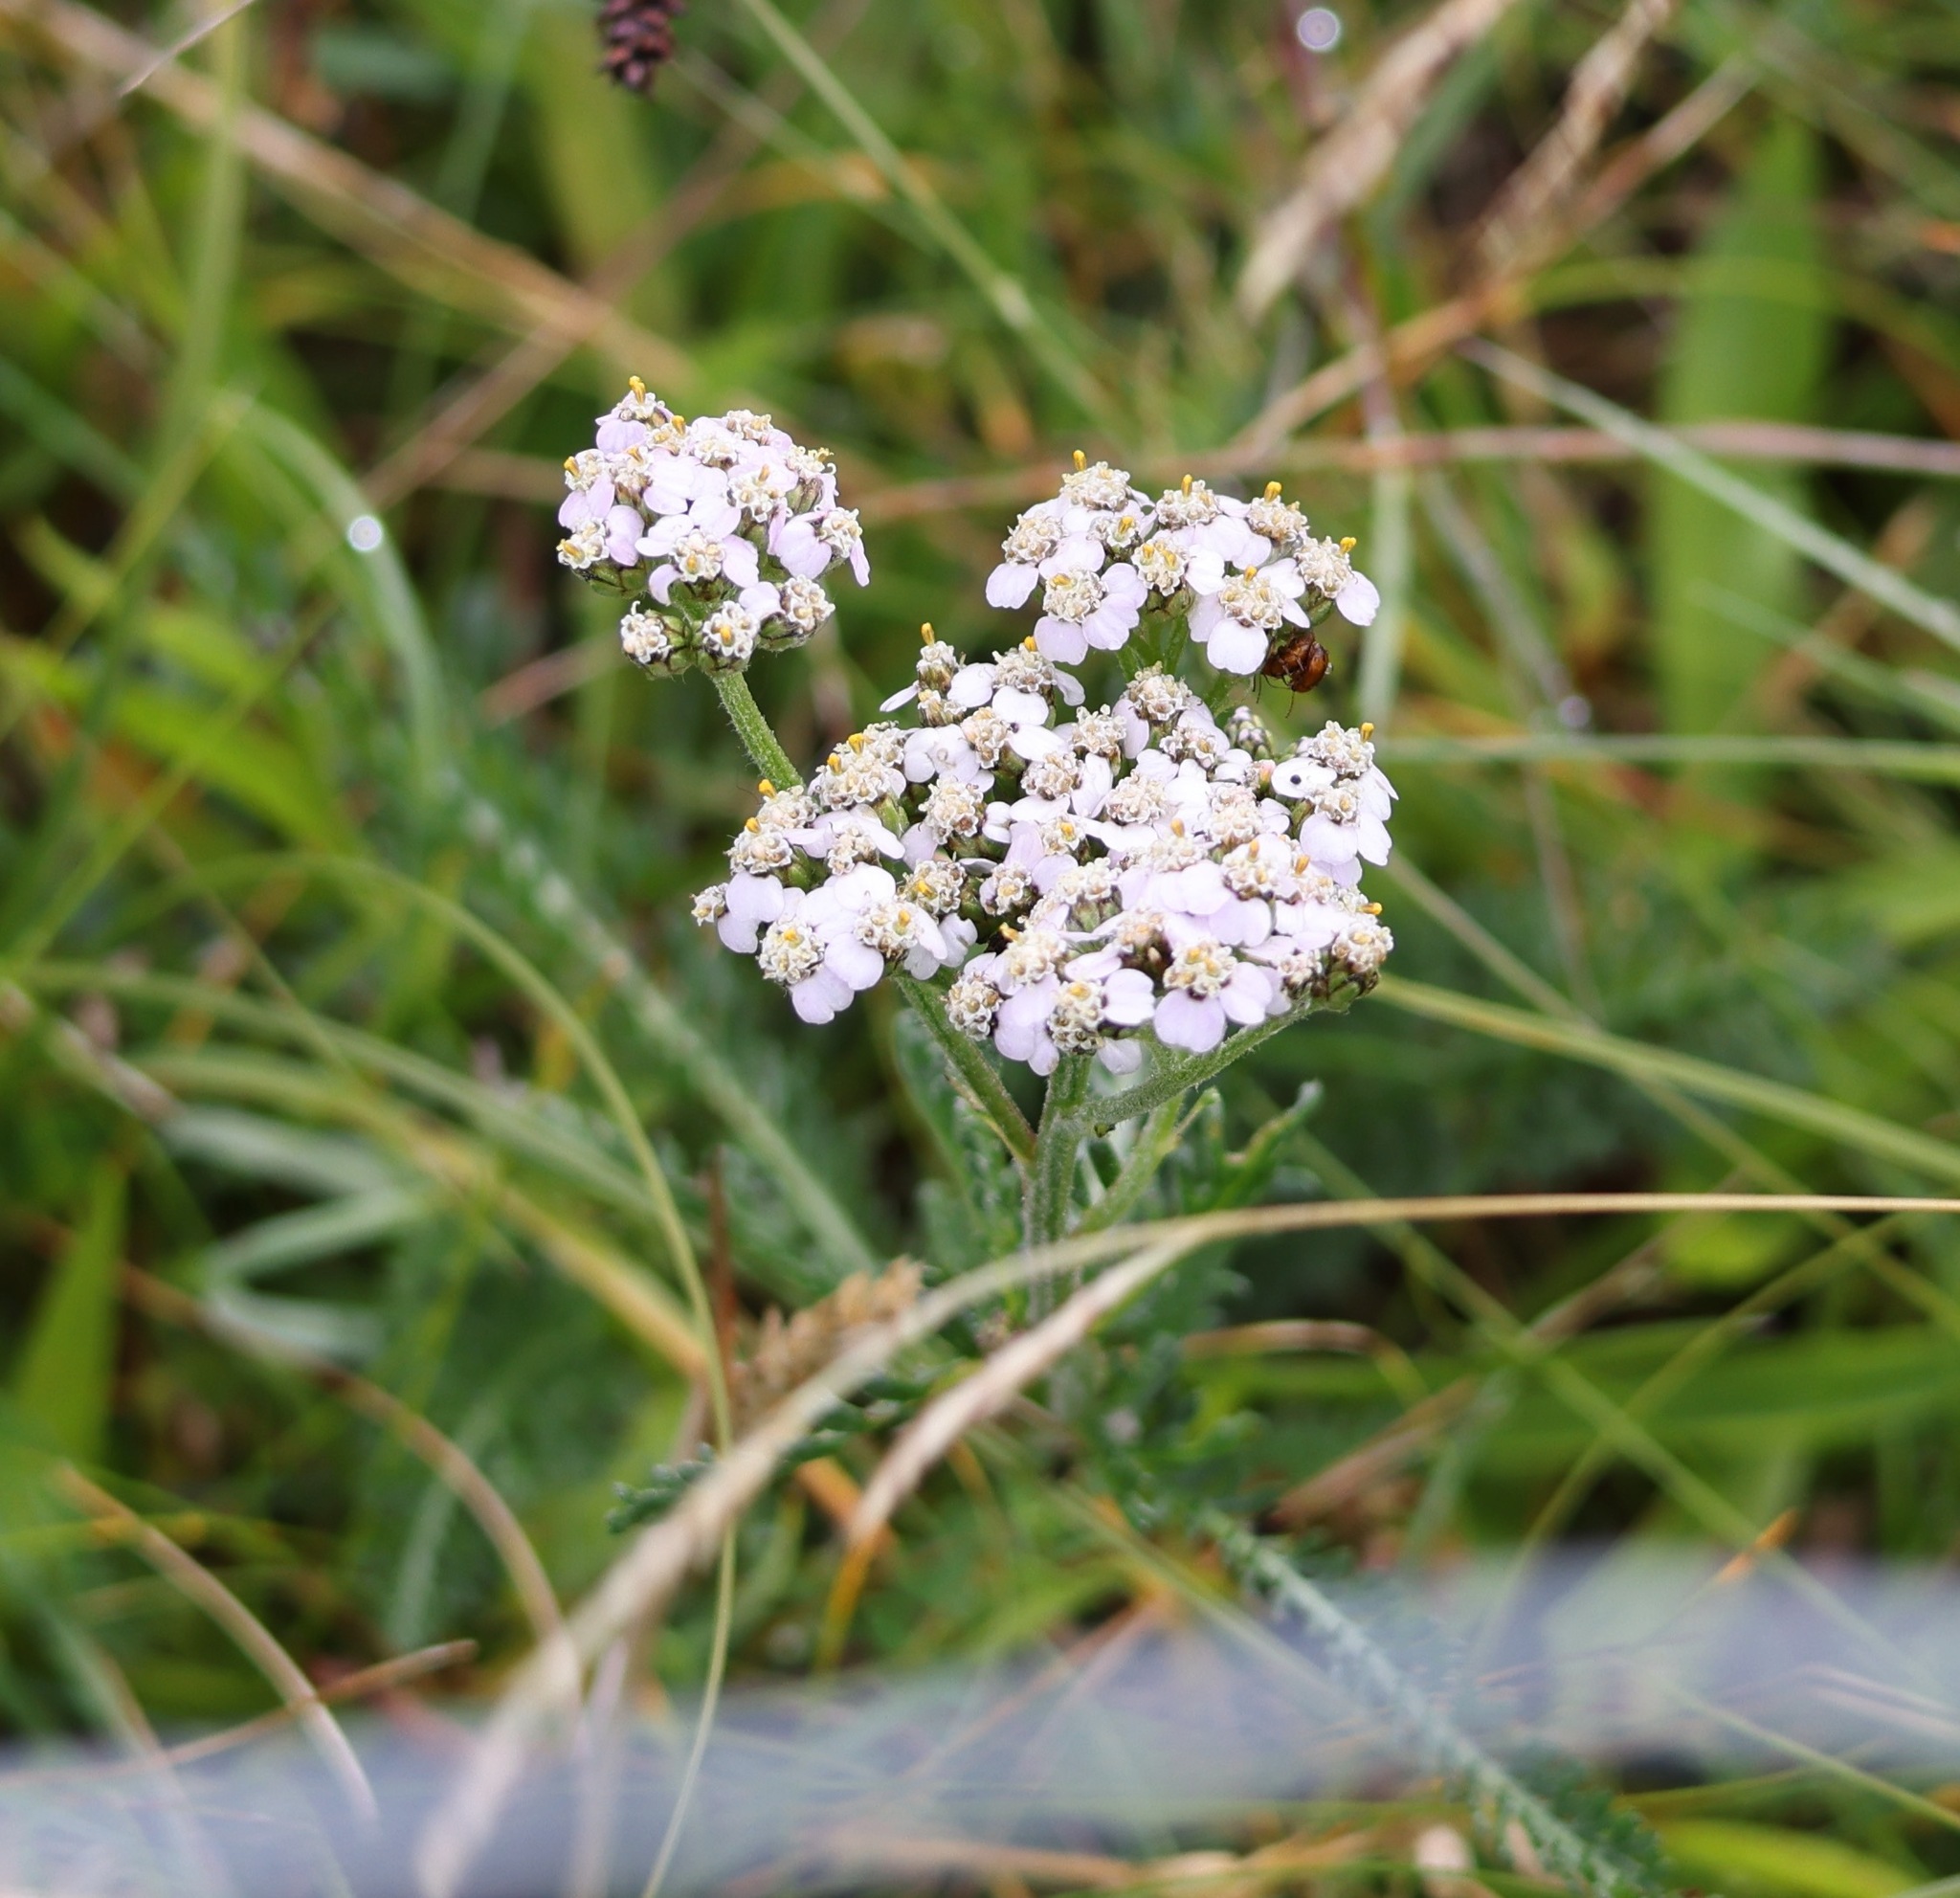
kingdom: Plantae
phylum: Tracheophyta
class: Magnoliopsida
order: Asterales
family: Asteraceae
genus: Achillea
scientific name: Achillea millefolium
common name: Yarrow
